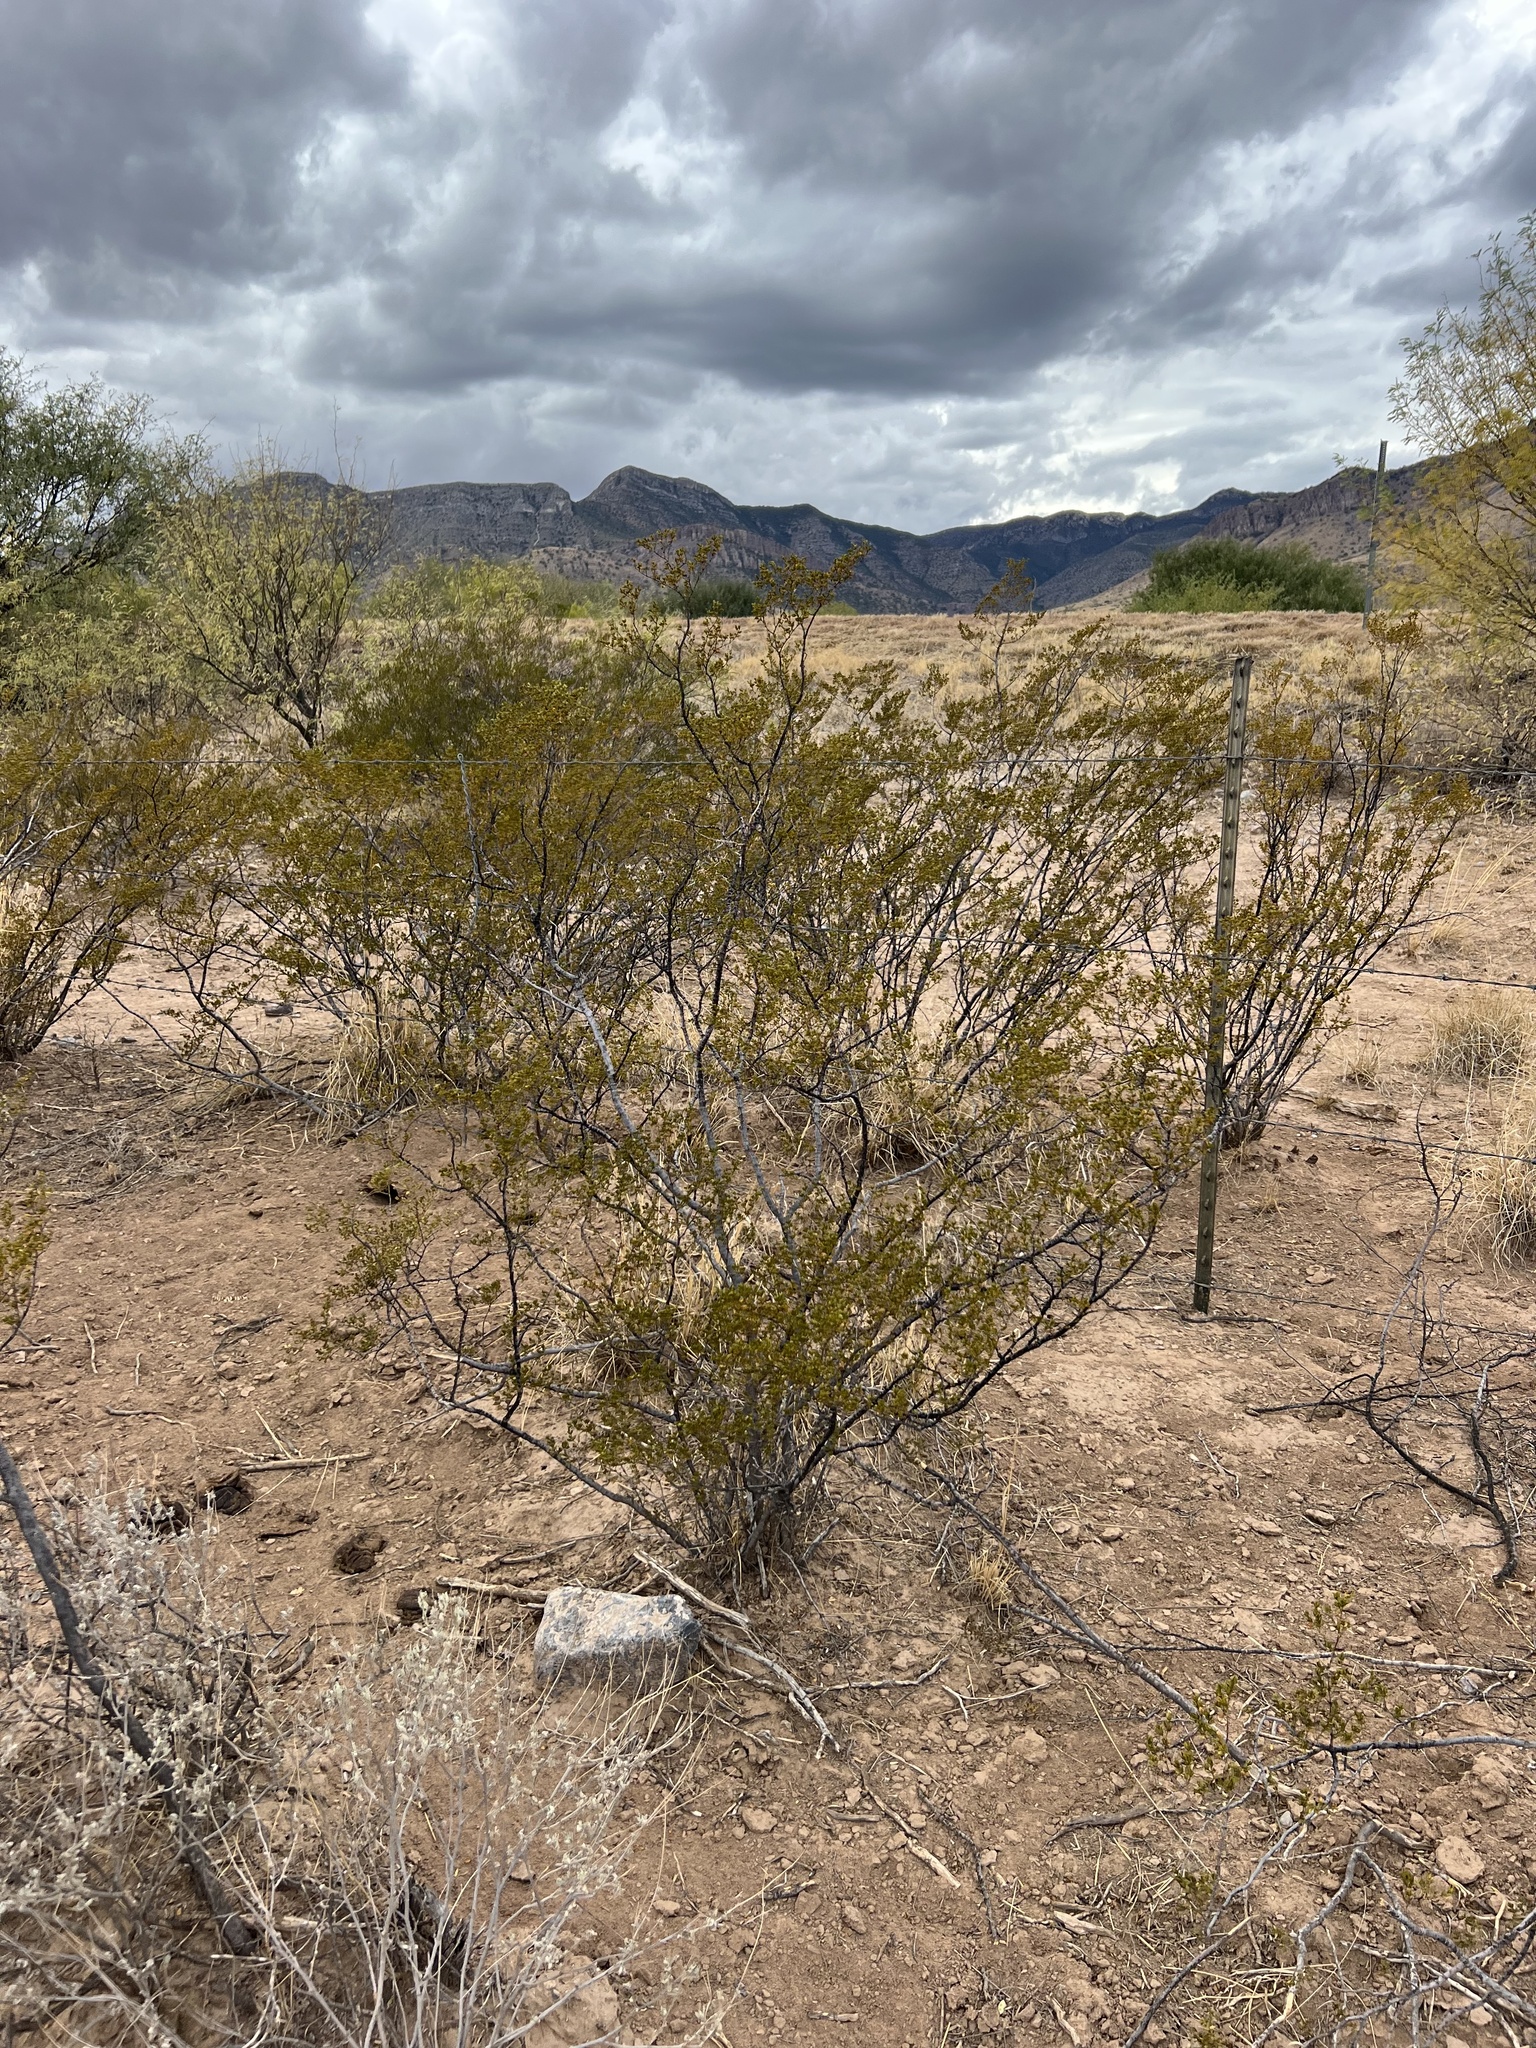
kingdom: Plantae
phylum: Tracheophyta
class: Magnoliopsida
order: Zygophyllales
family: Zygophyllaceae
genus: Larrea
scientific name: Larrea tridentata
